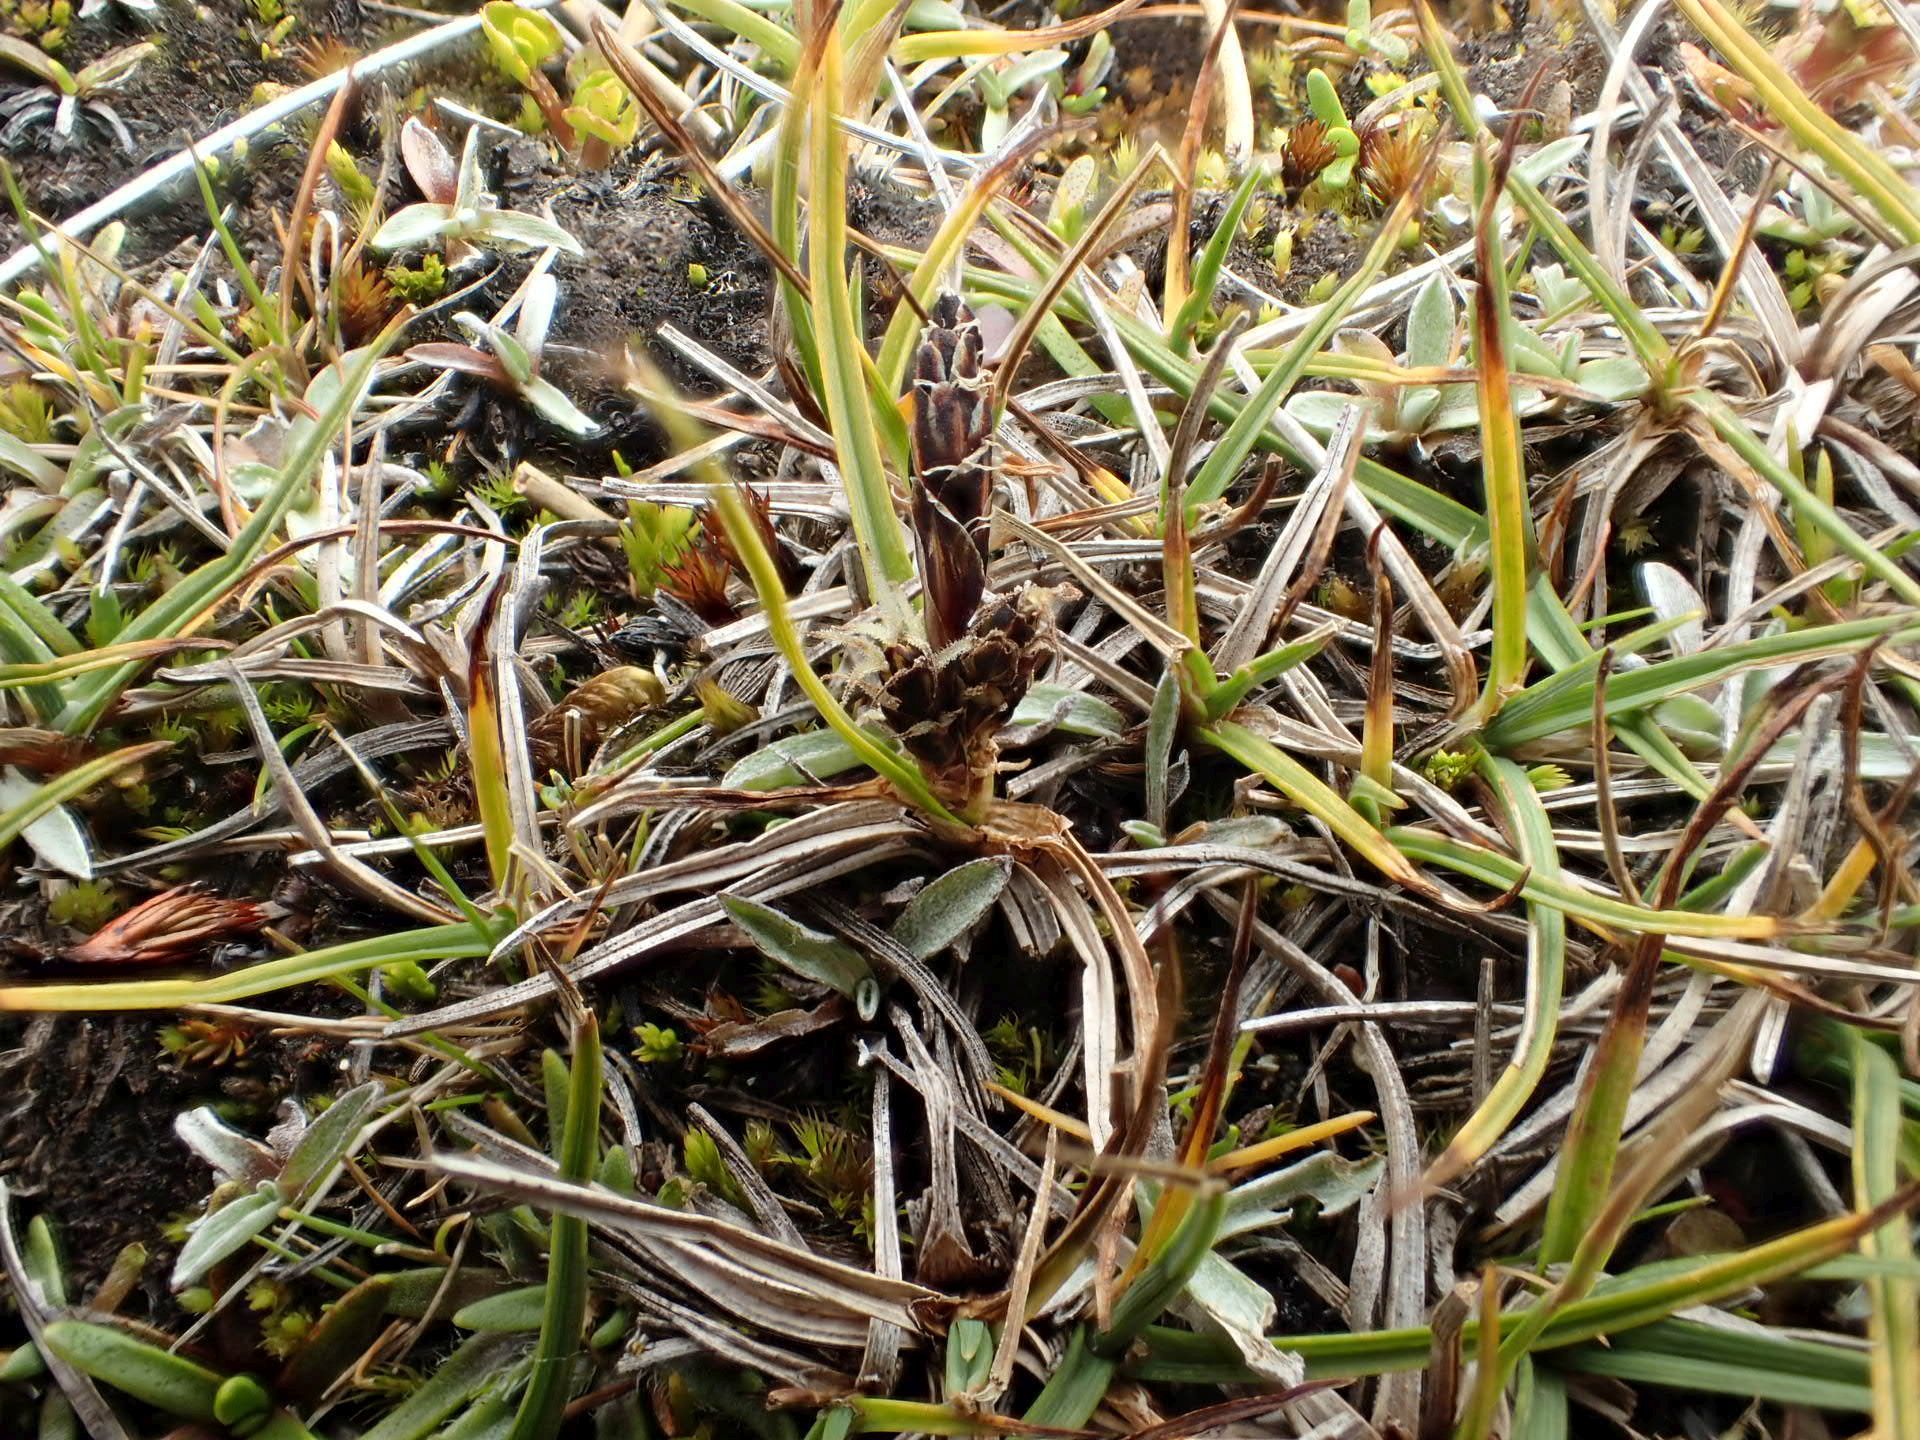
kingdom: Plantae
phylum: Tracheophyta
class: Liliopsida
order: Poales
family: Cyperaceae
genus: Carex
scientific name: Carex breviculmis
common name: Asian shortstem sedge
